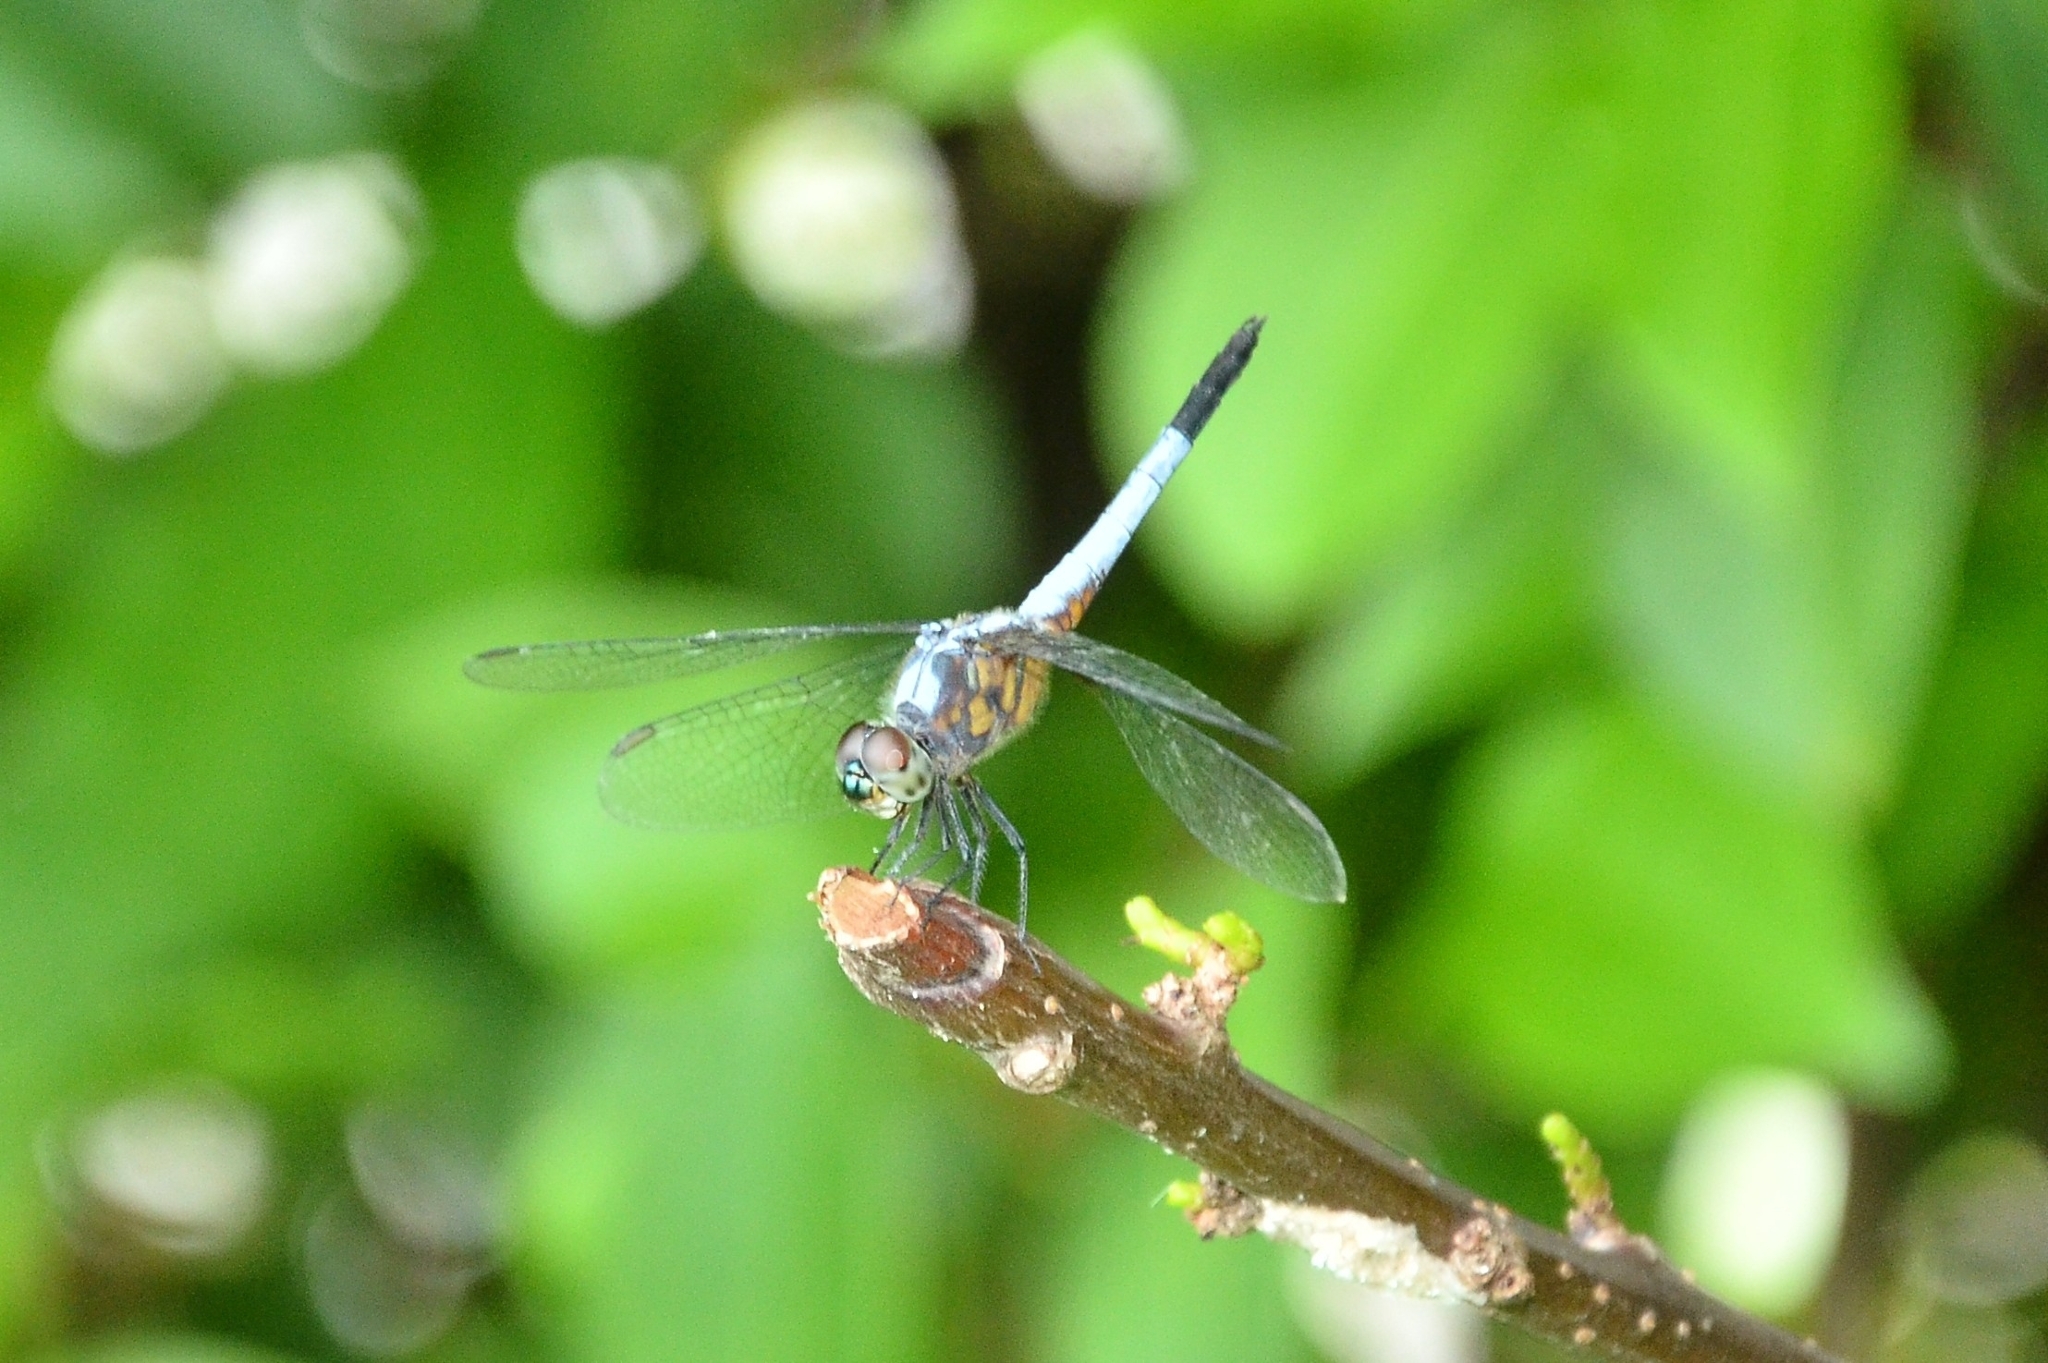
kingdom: Animalia
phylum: Arthropoda
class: Insecta
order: Odonata
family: Libellulidae
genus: Brachydiplax
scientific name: Brachydiplax chalybea
